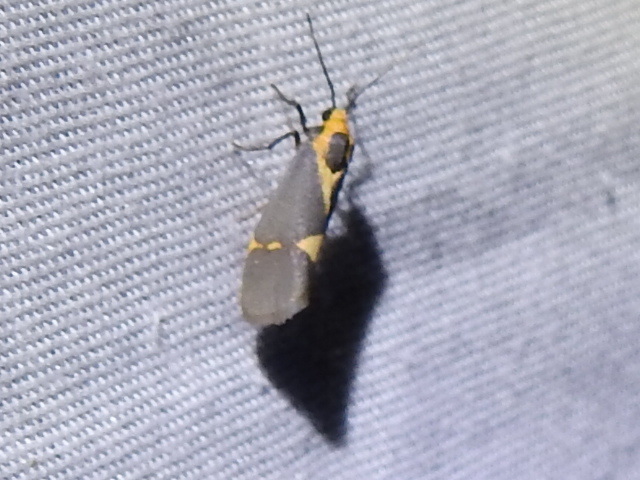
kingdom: Animalia
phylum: Arthropoda
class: Insecta
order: Lepidoptera
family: Erebidae
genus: Cisthene
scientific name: Cisthene tenuifascia
